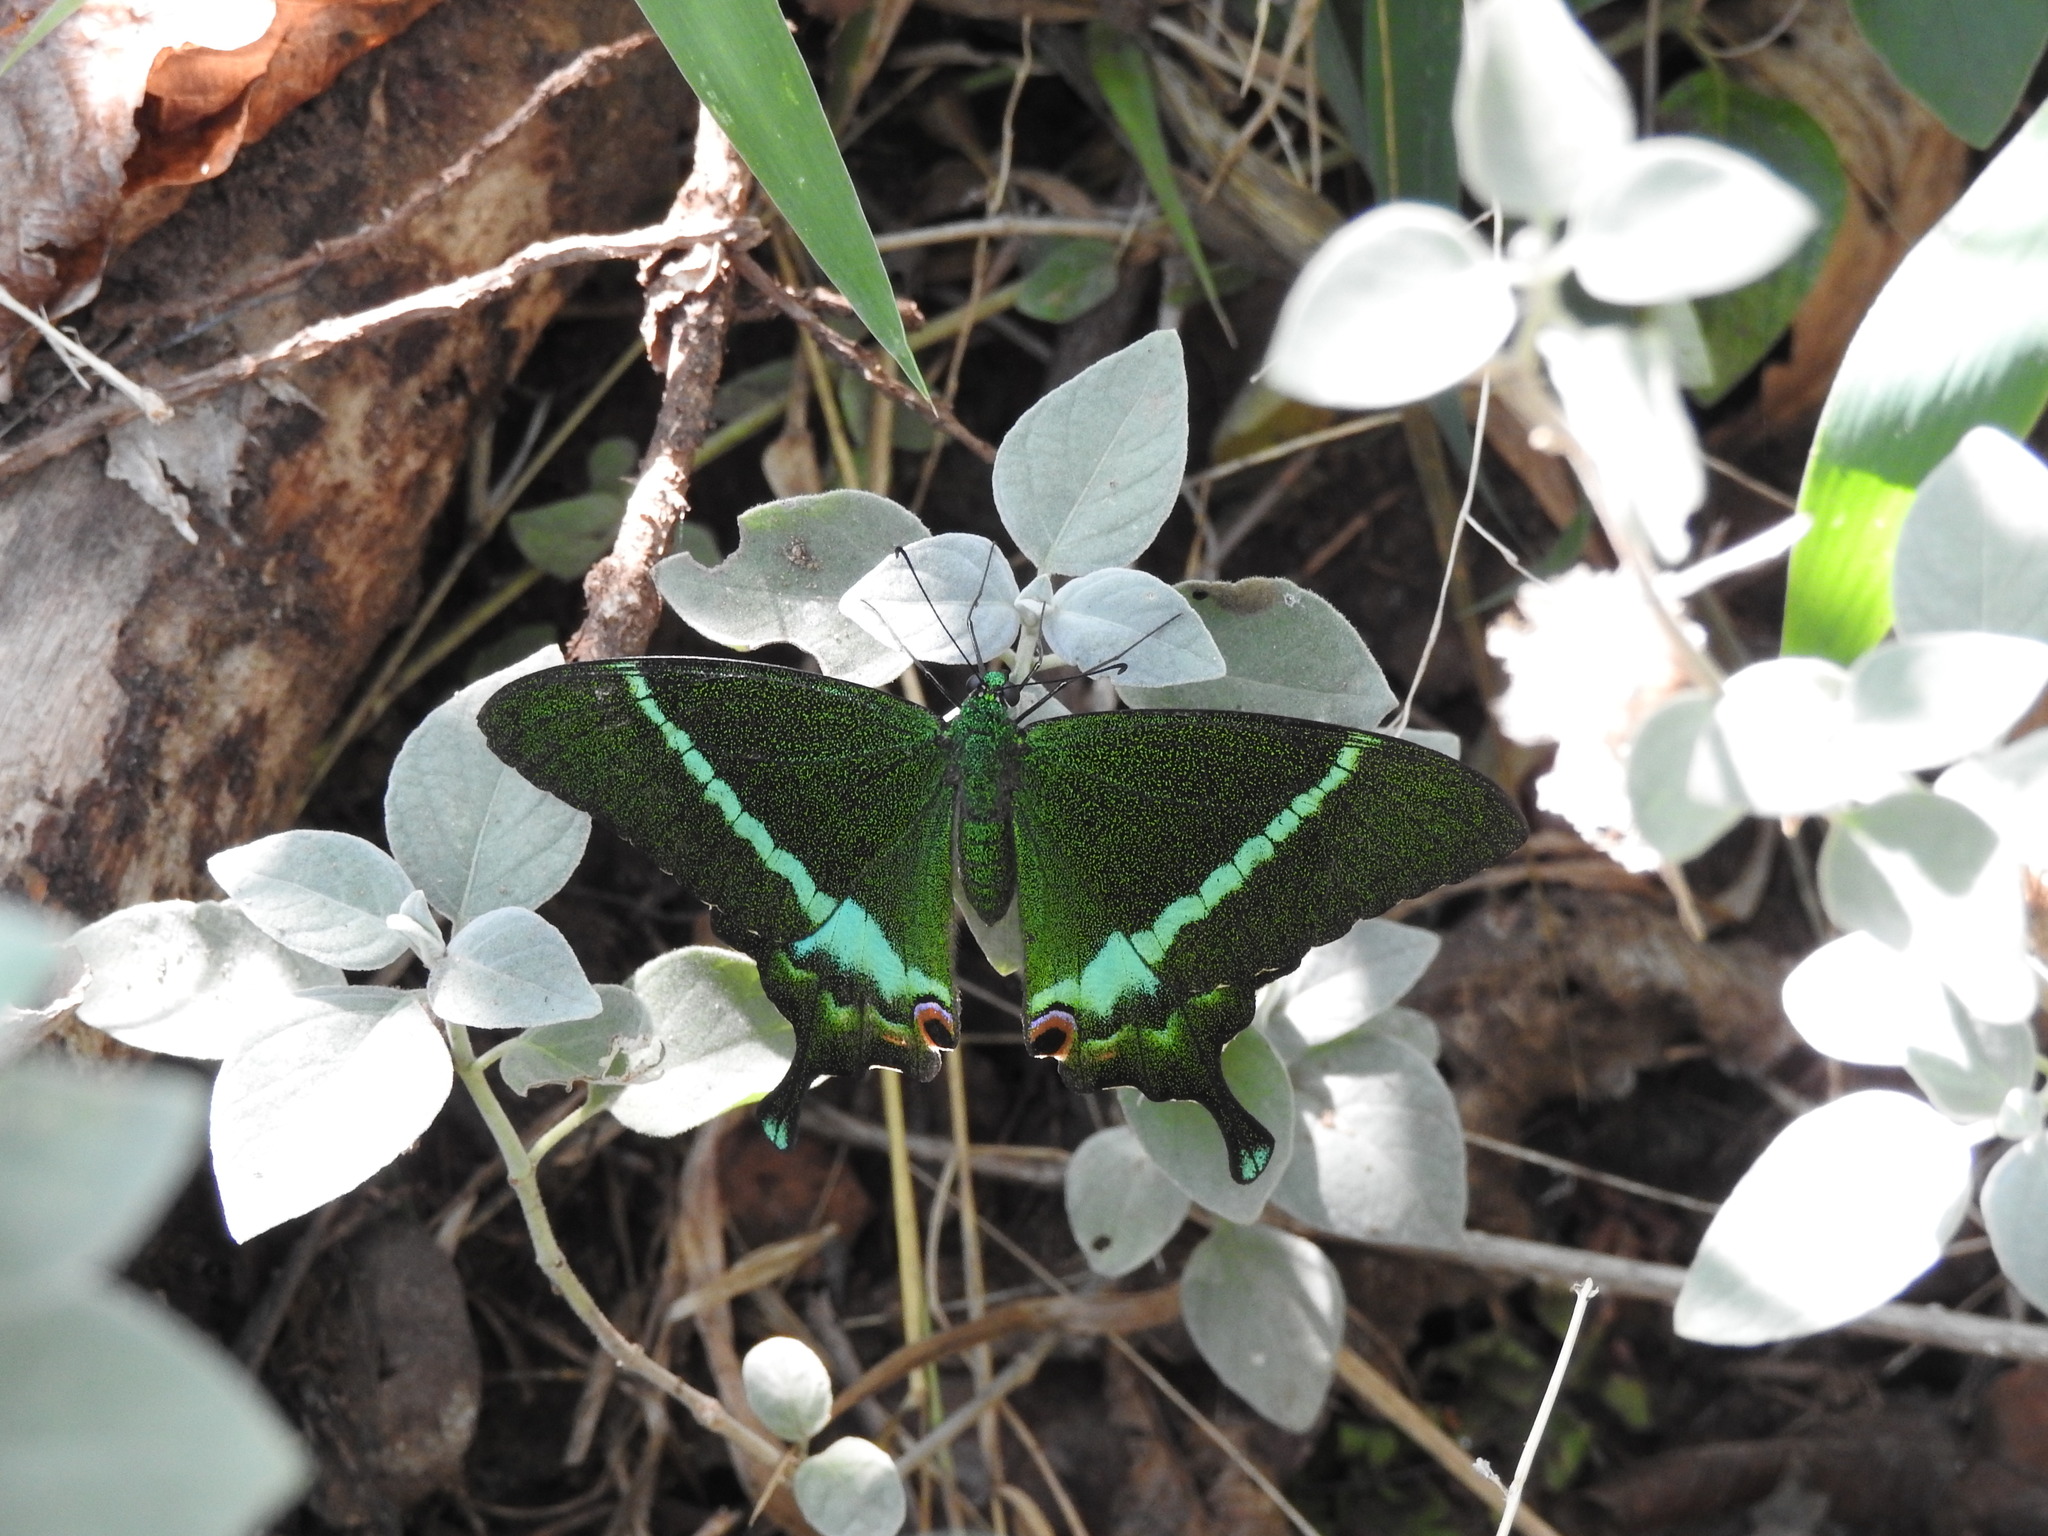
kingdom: Animalia
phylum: Arthropoda
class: Insecta
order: Lepidoptera
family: Papilionidae
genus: Papilio
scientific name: Papilio crino
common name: Common banded peacock
